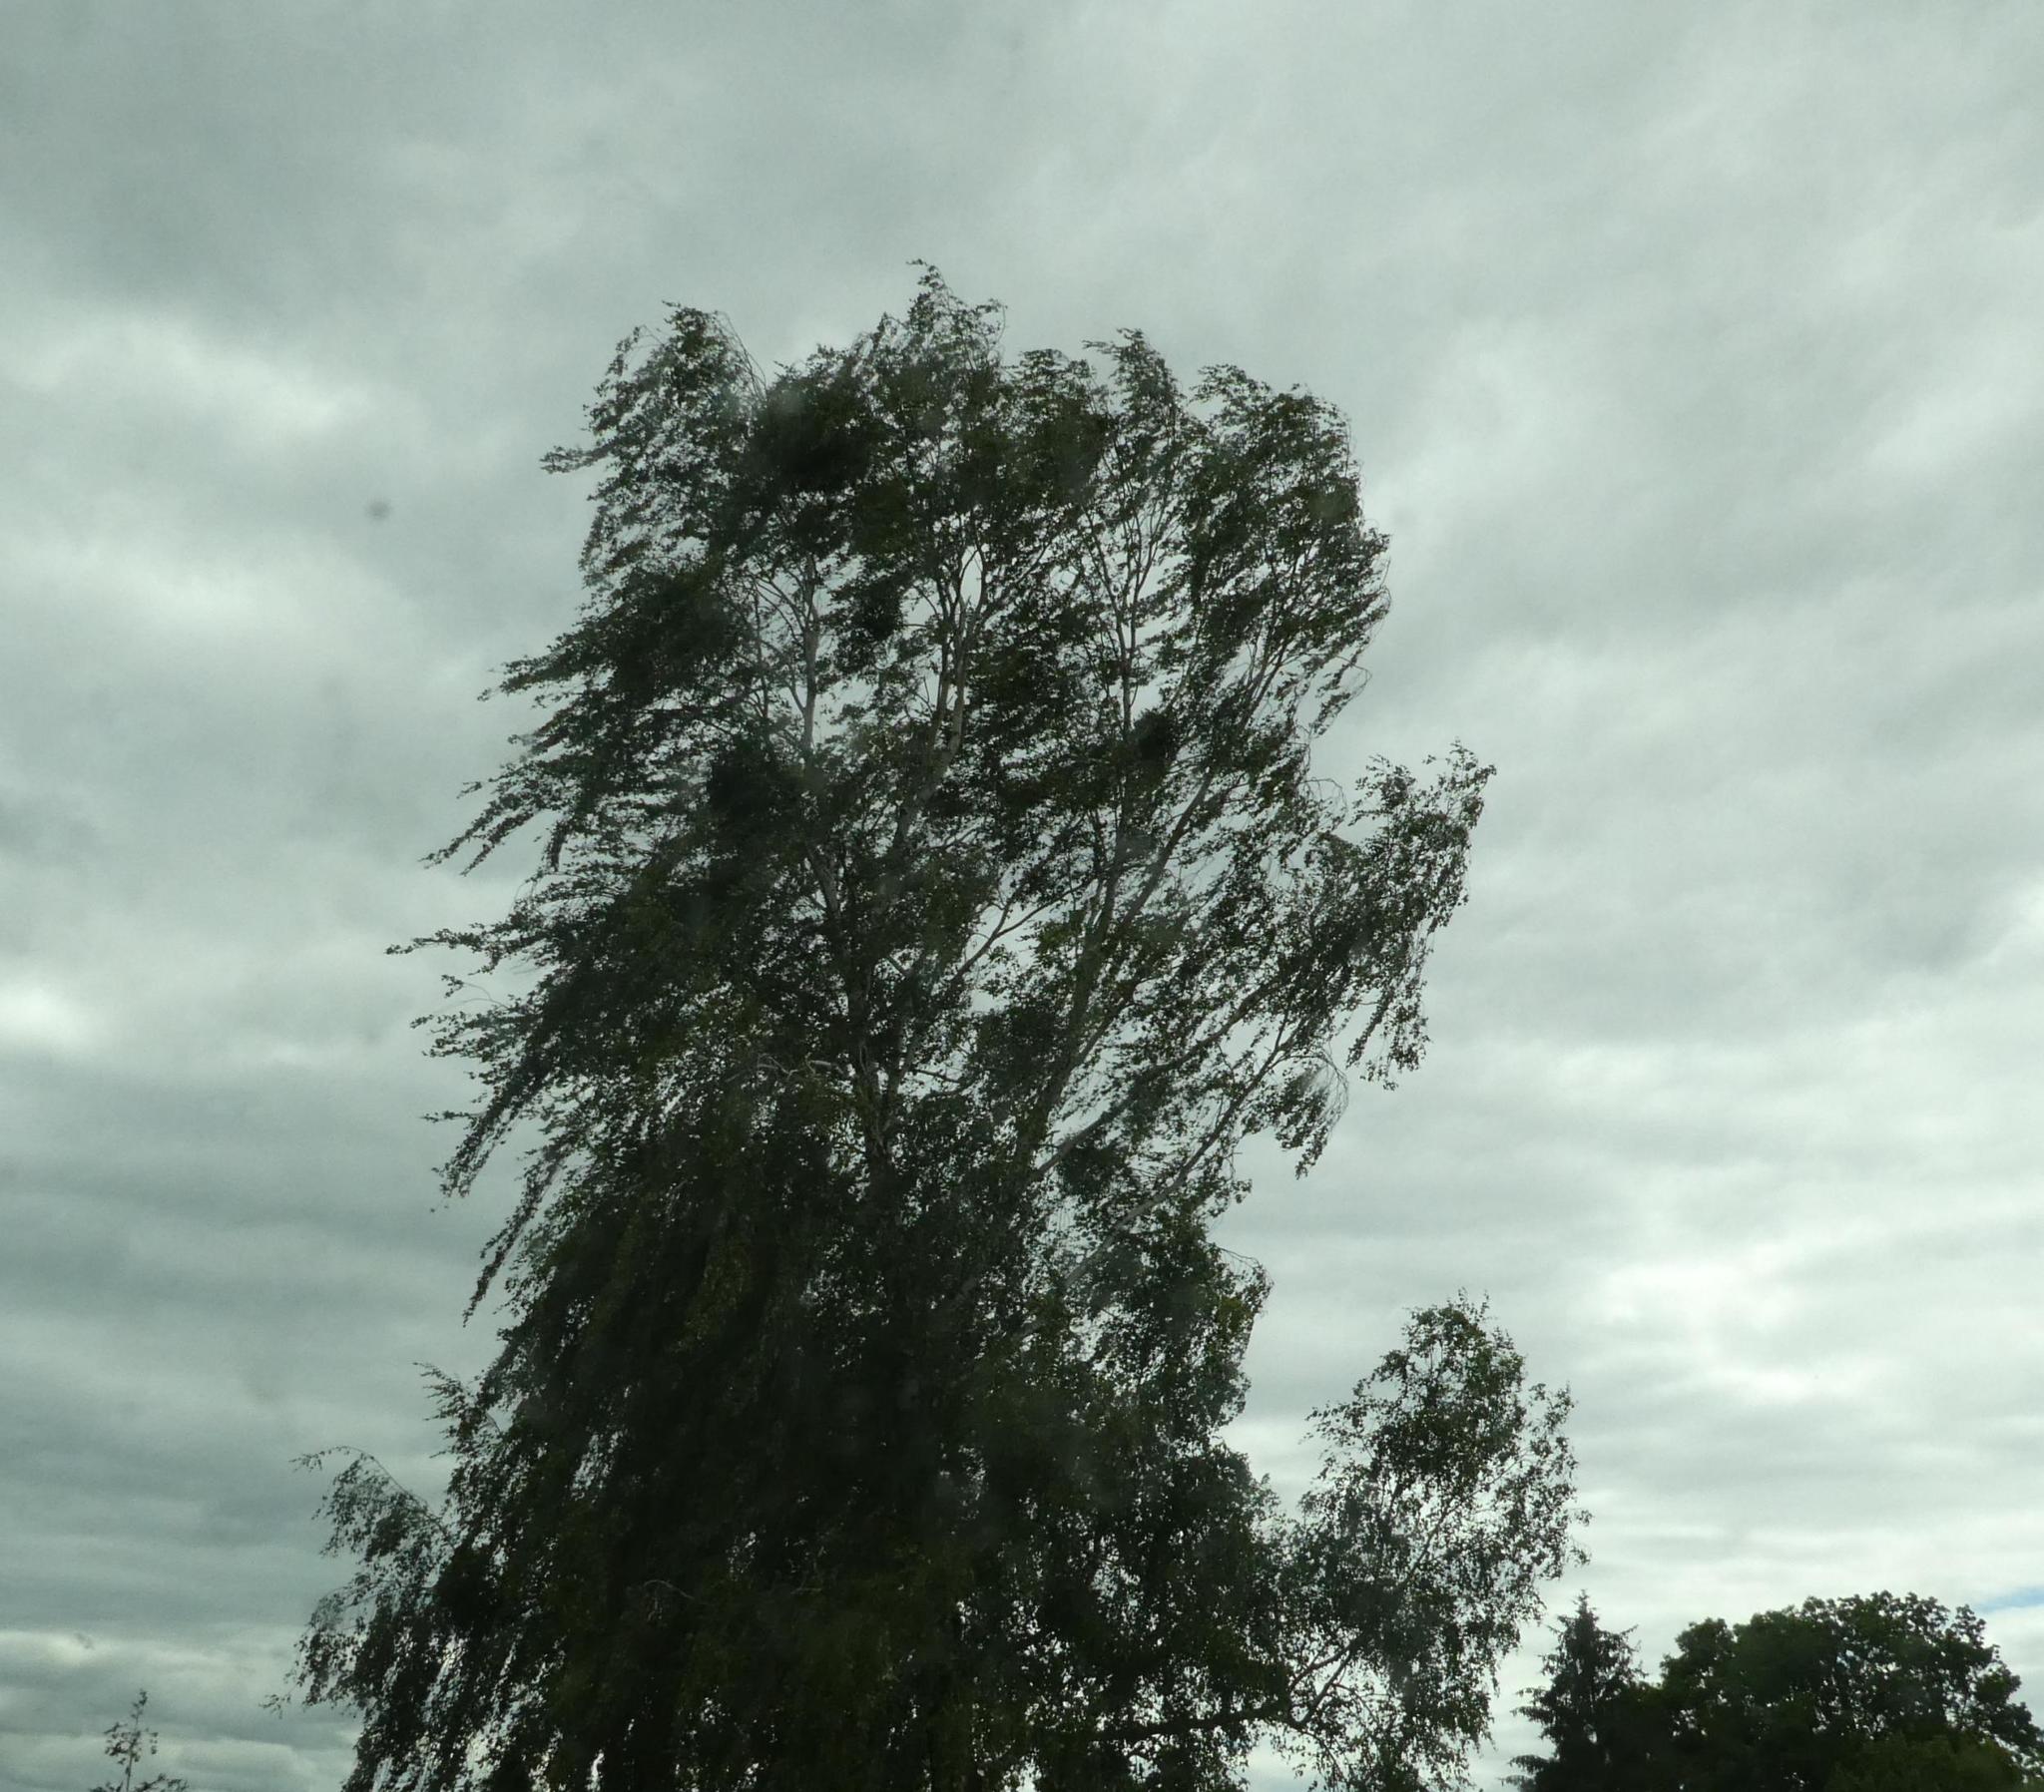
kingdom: Plantae
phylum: Tracheophyta
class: Magnoliopsida
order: Fagales
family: Betulaceae
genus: Betula
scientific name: Betula pendula
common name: Silver birch
